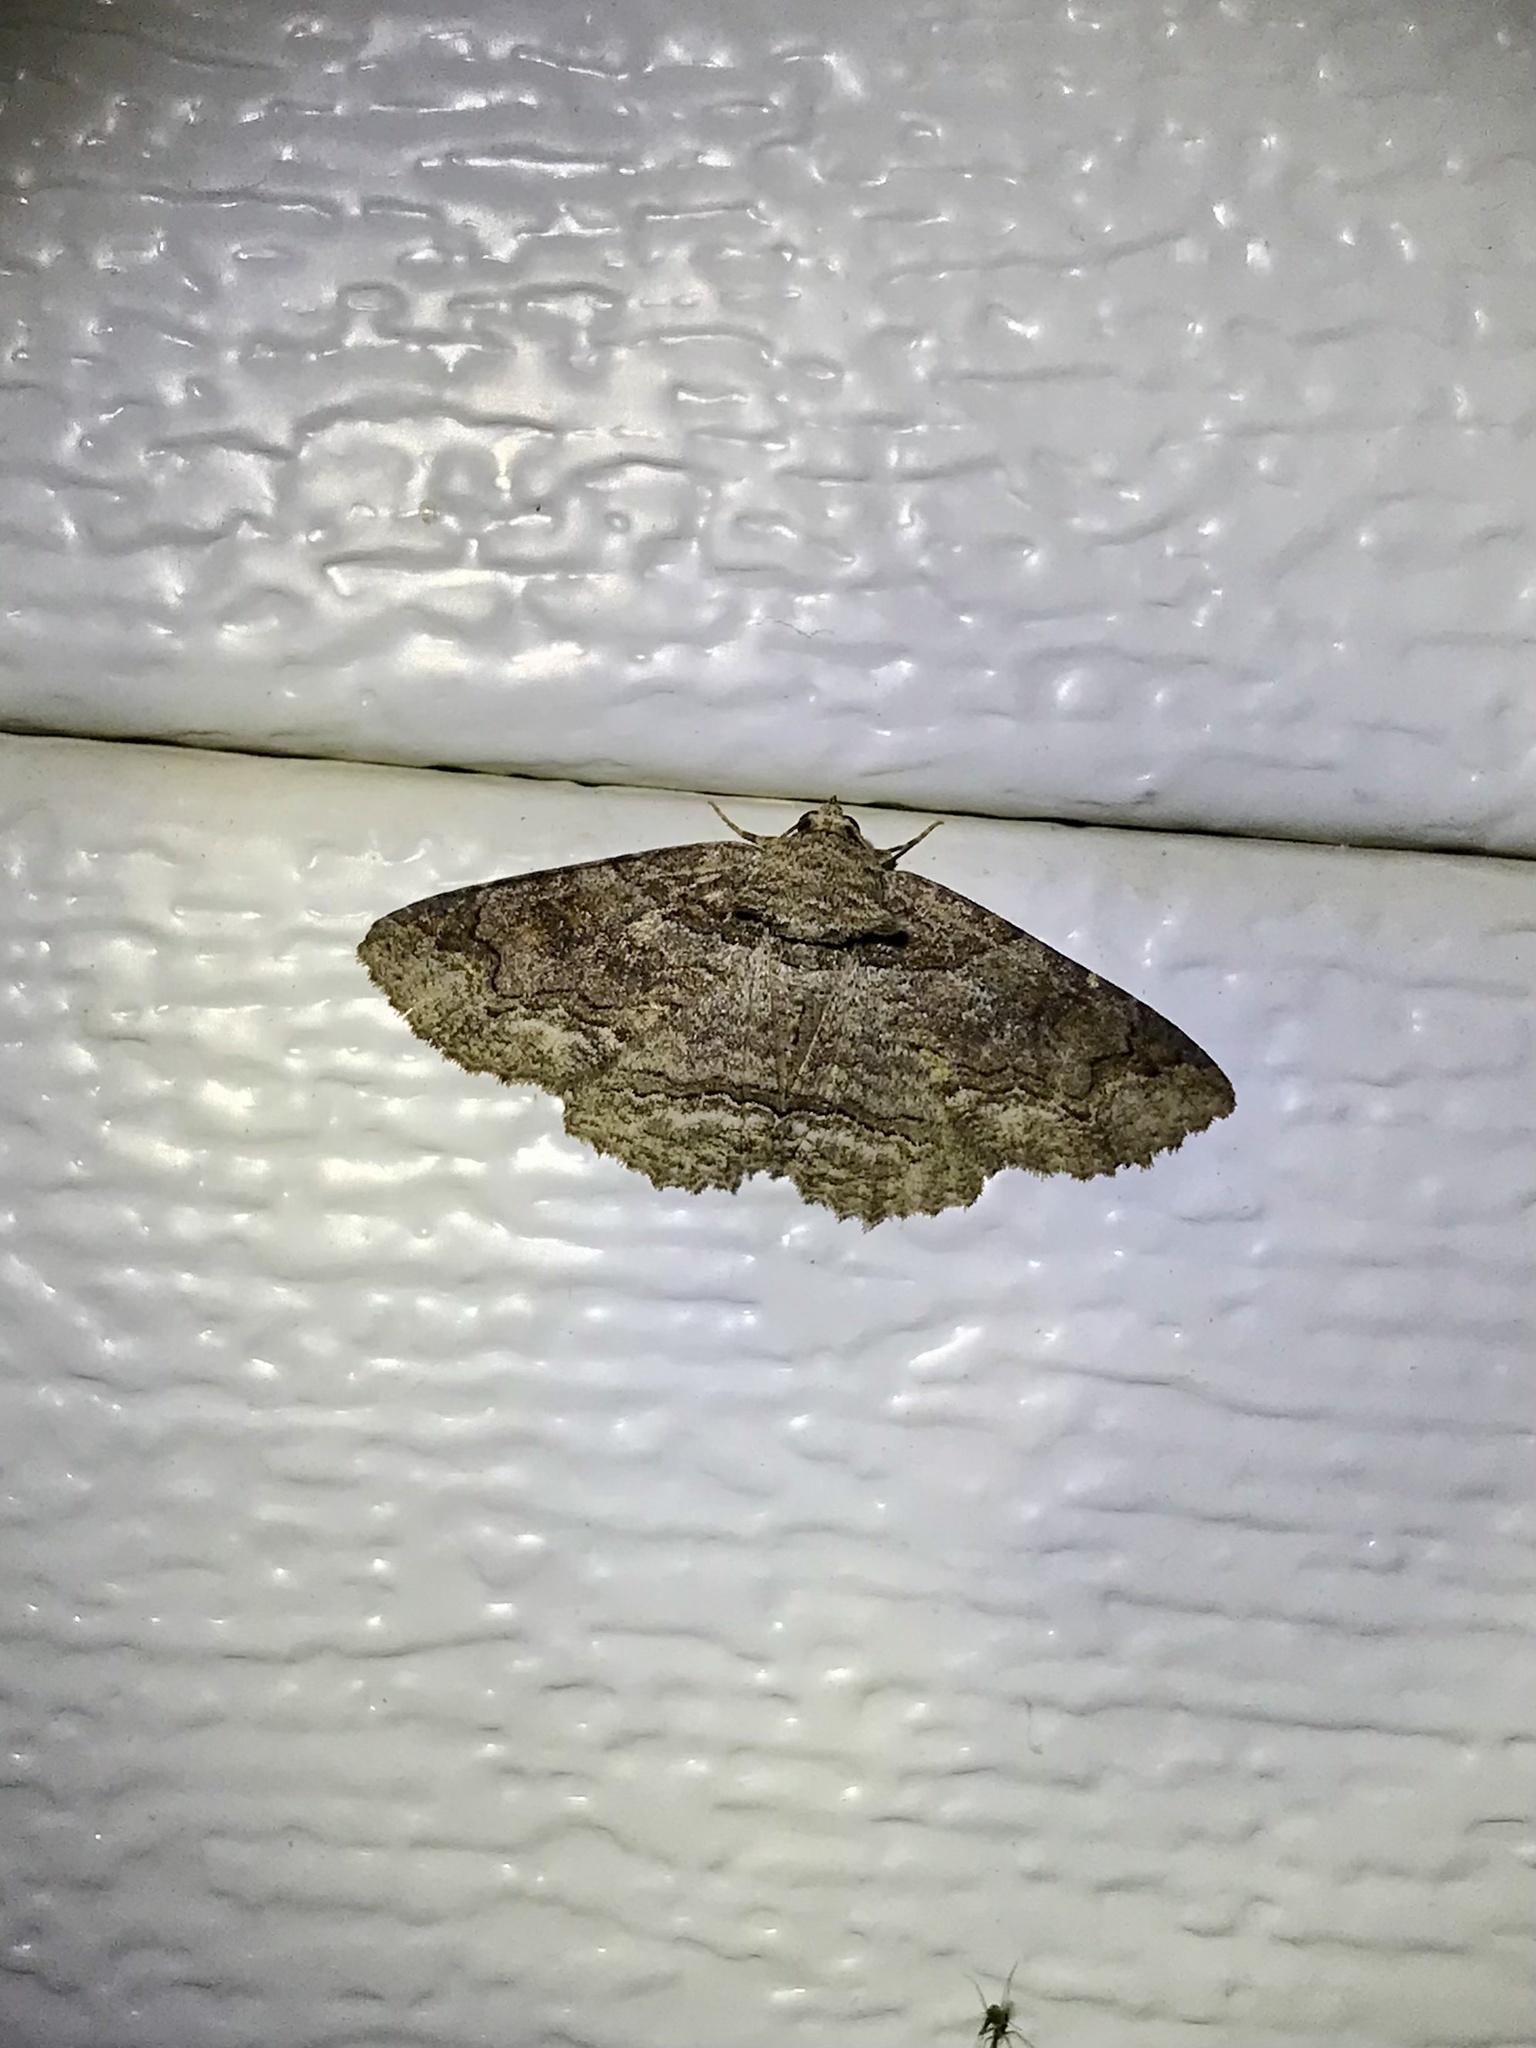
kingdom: Animalia
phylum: Arthropoda
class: Insecta
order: Lepidoptera
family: Erebidae
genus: Zale
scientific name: Zale galbanata
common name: Maple zale
